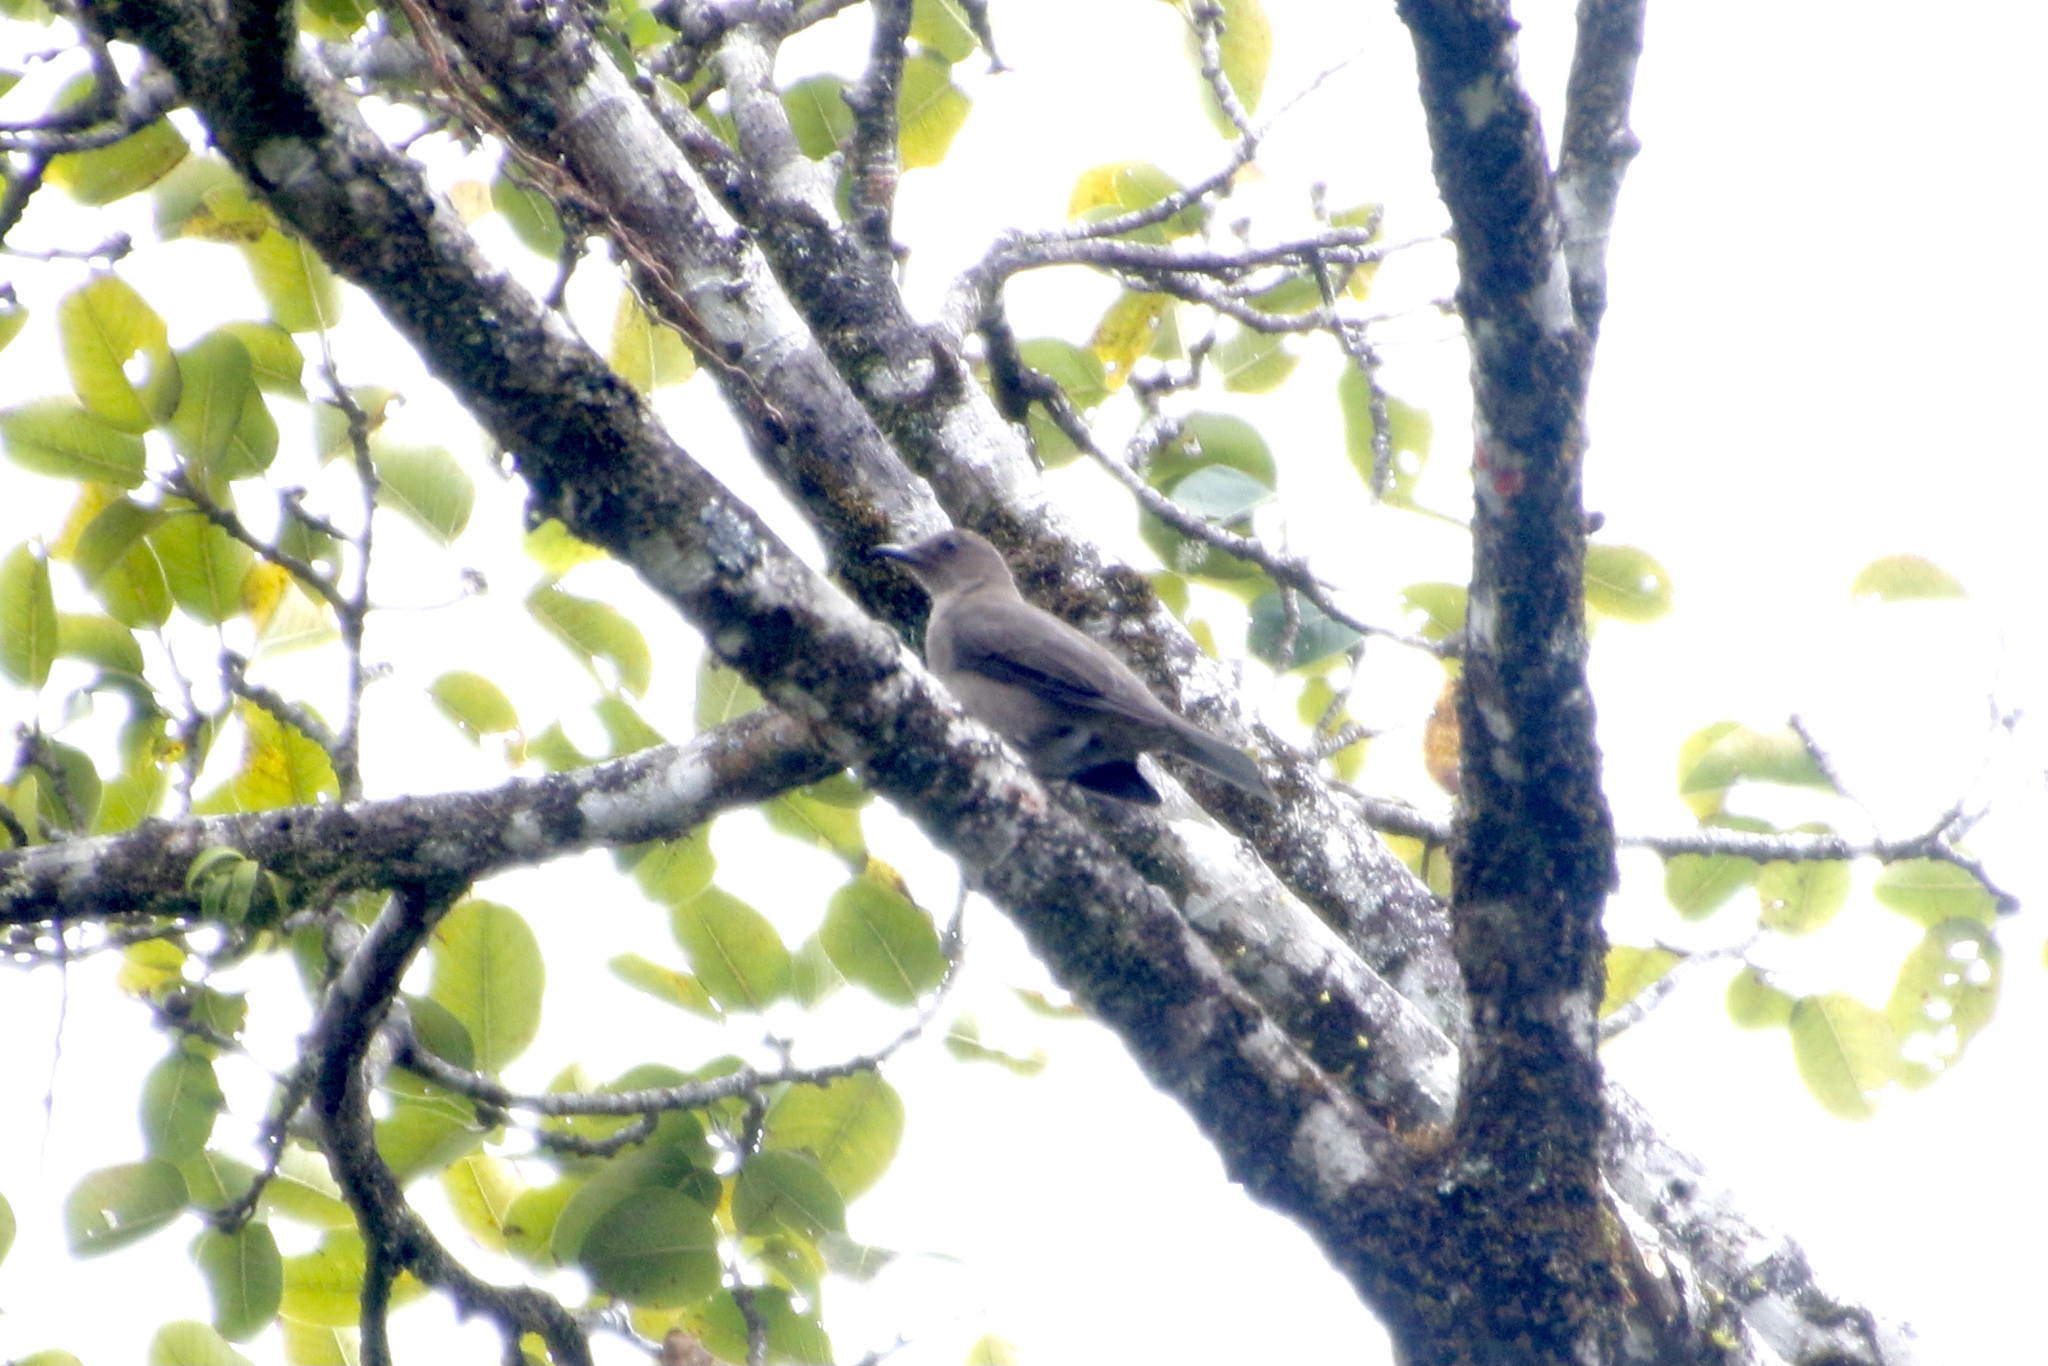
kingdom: Animalia
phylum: Chordata
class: Aves
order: Passeriformes
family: Turdidae
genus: Turdus
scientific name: Turdus plebejus
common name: Mountain thrush
